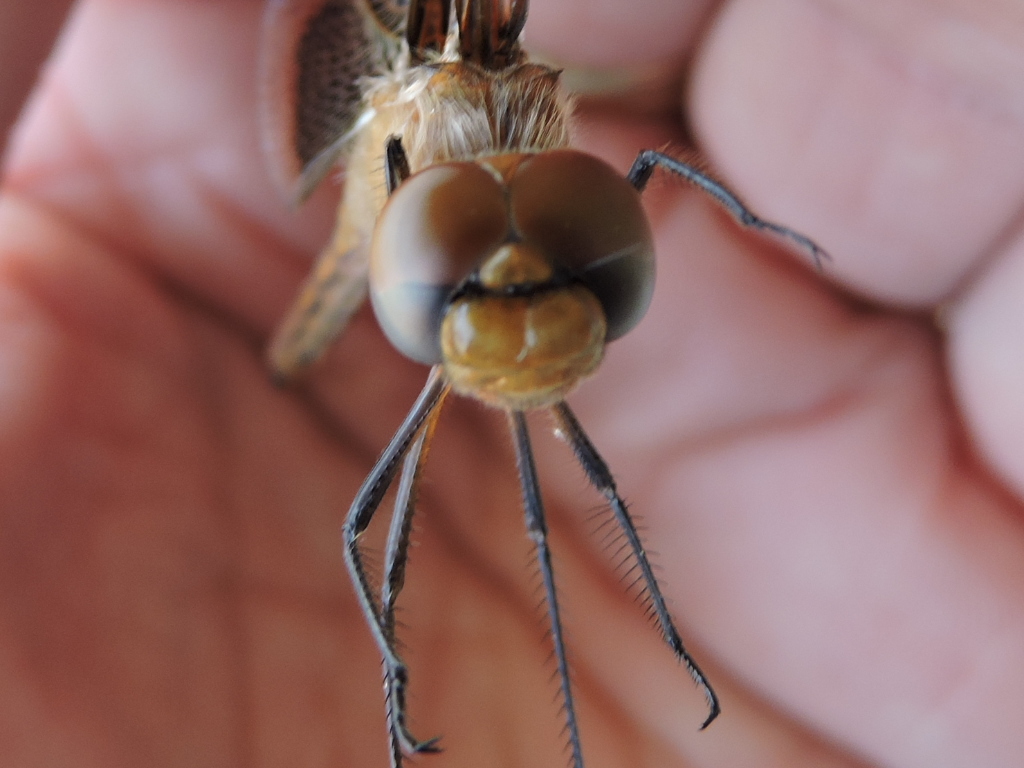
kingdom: Animalia
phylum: Arthropoda
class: Insecta
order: Odonata
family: Libellulidae
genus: Tramea
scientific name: Tramea onusta
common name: Red saddlebags
